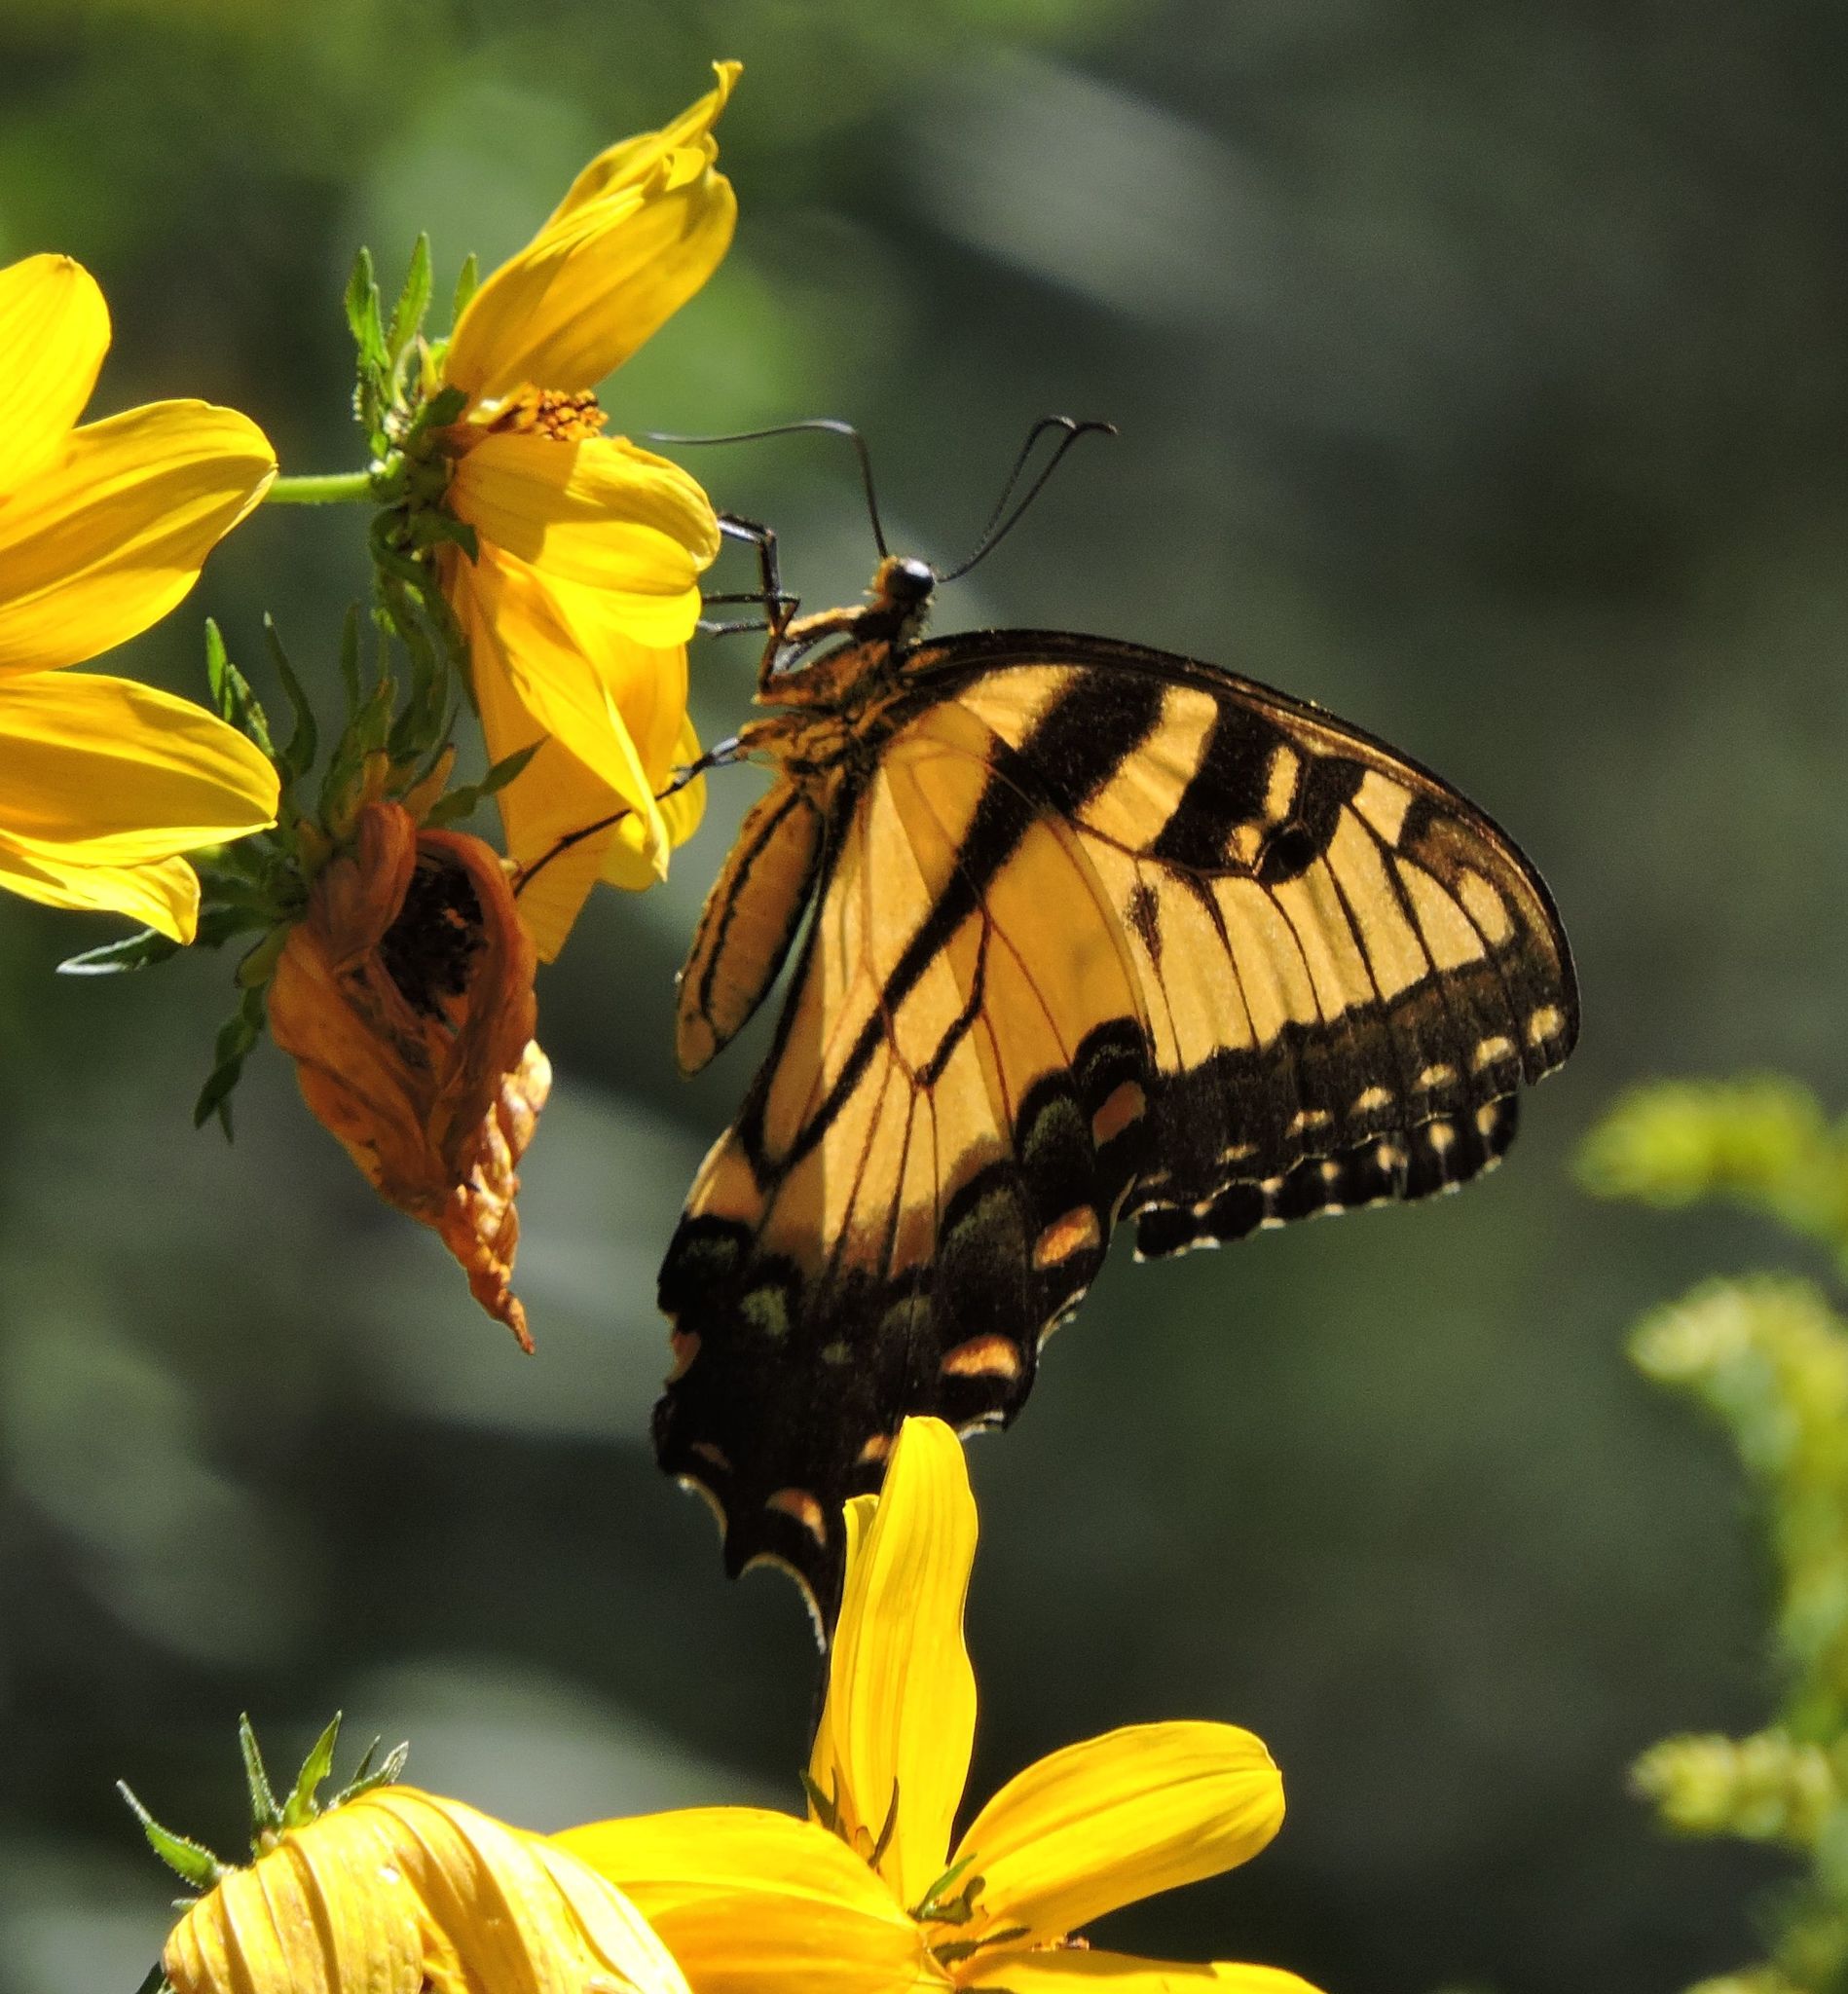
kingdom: Animalia
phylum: Arthropoda
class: Insecta
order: Lepidoptera
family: Papilionidae
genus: Papilio
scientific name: Papilio glaucus
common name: Tiger swallowtail
